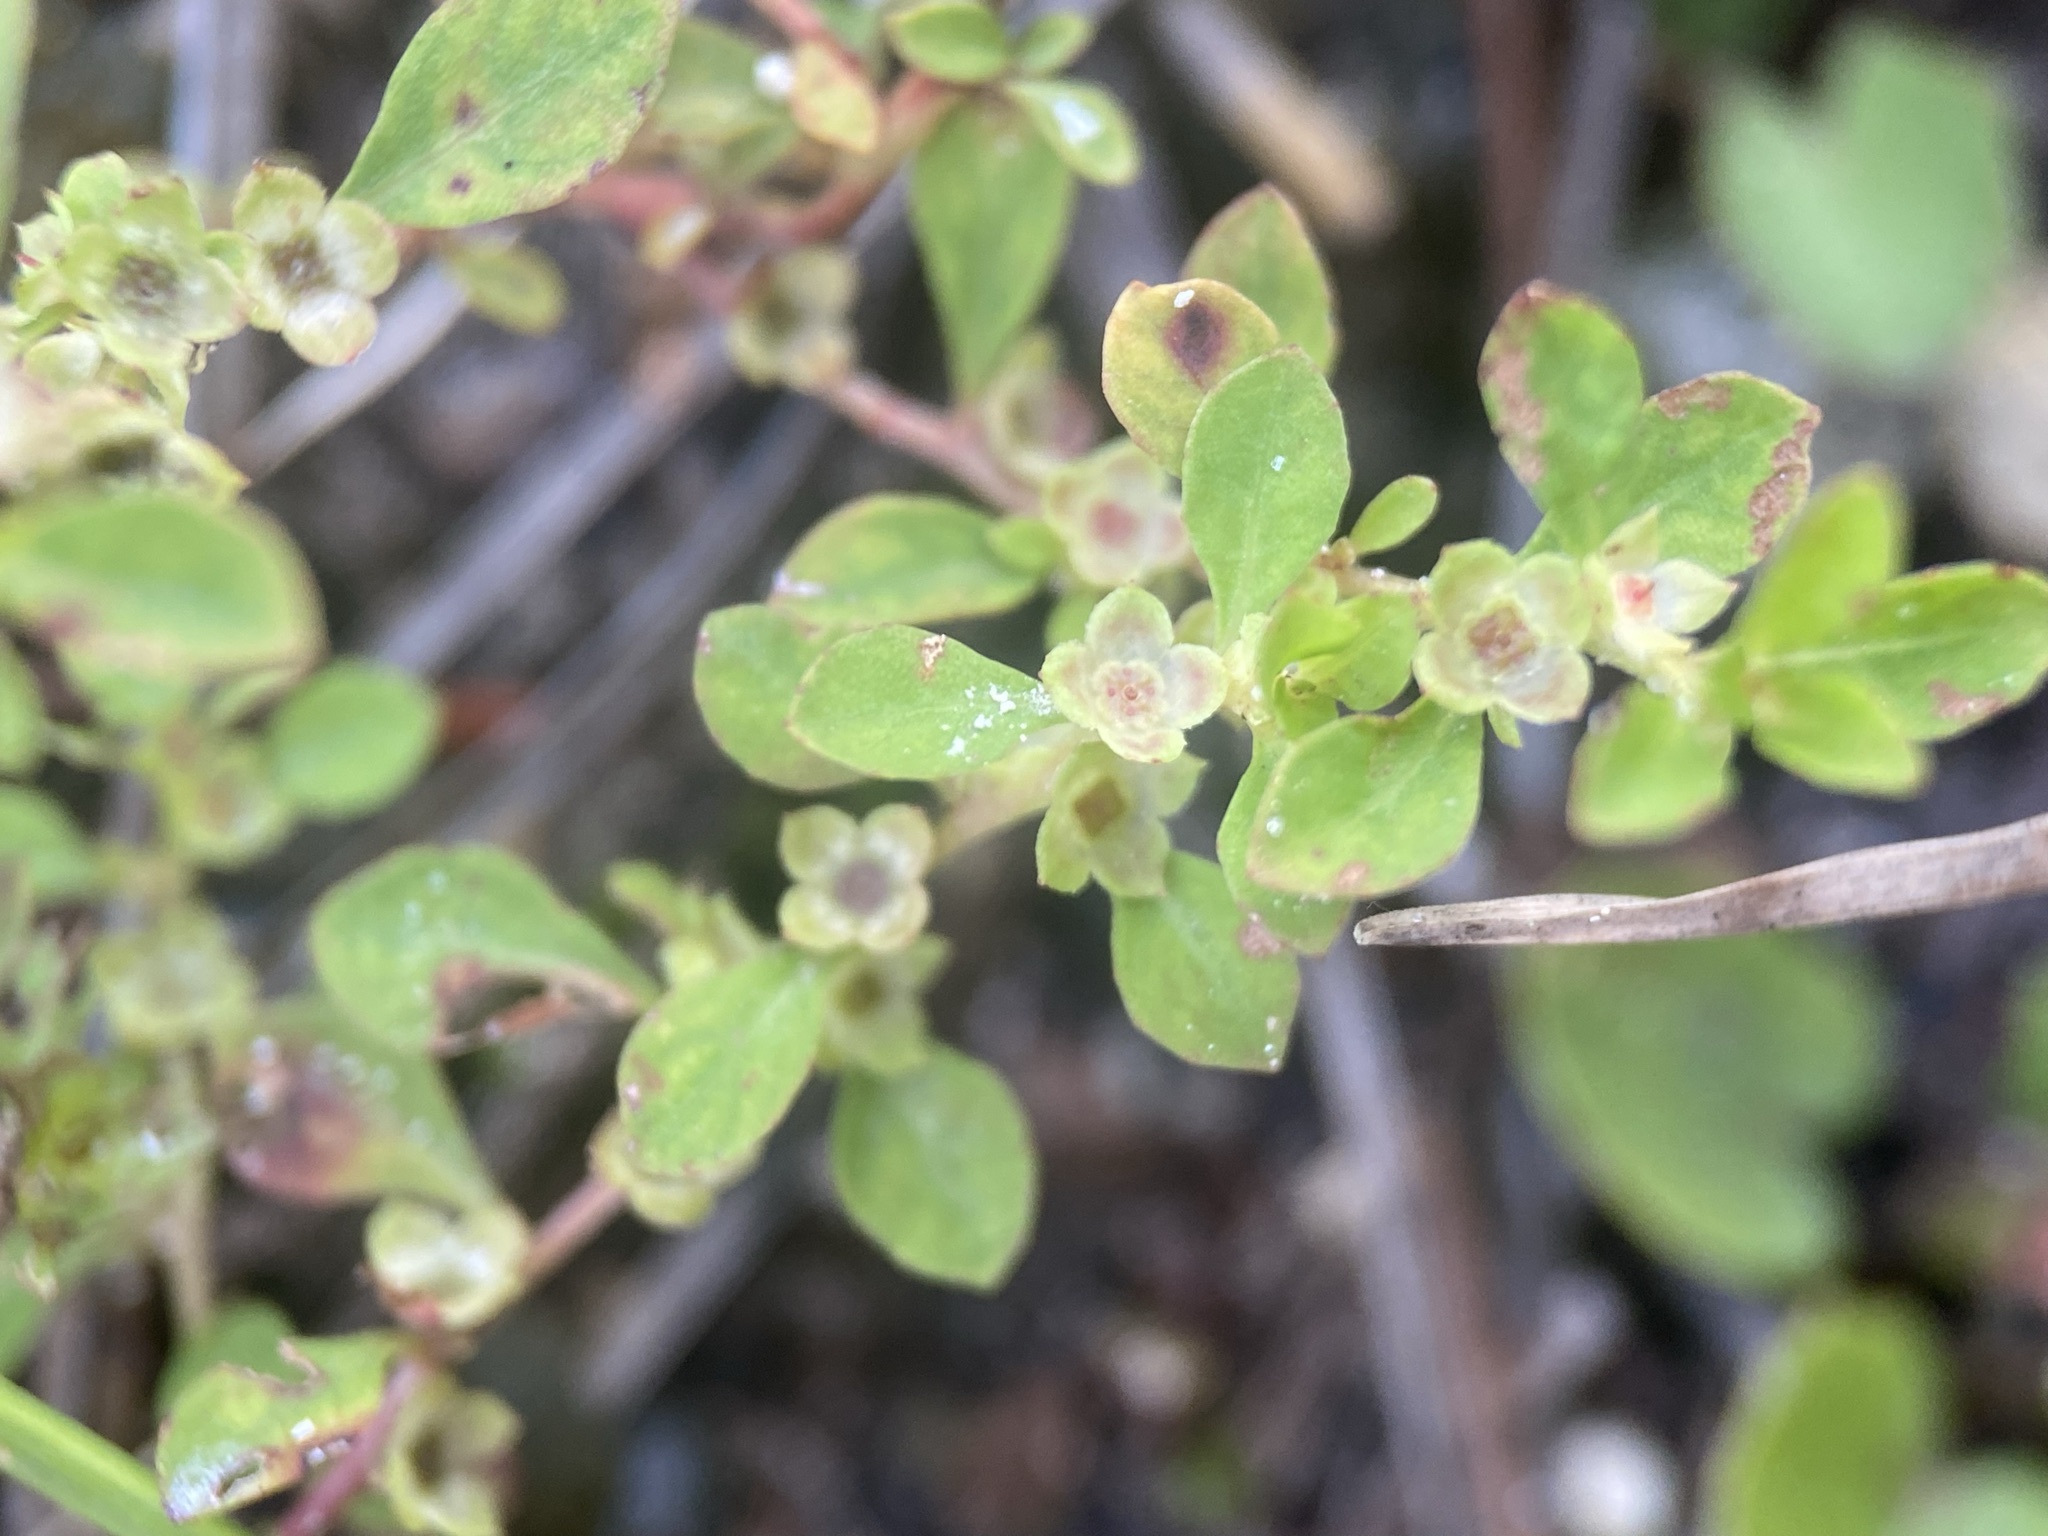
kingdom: Plantae
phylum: Tracheophyta
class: Magnoliopsida
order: Myrtales
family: Onagraceae
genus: Ludwigia
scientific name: Ludwigia microcarpa
